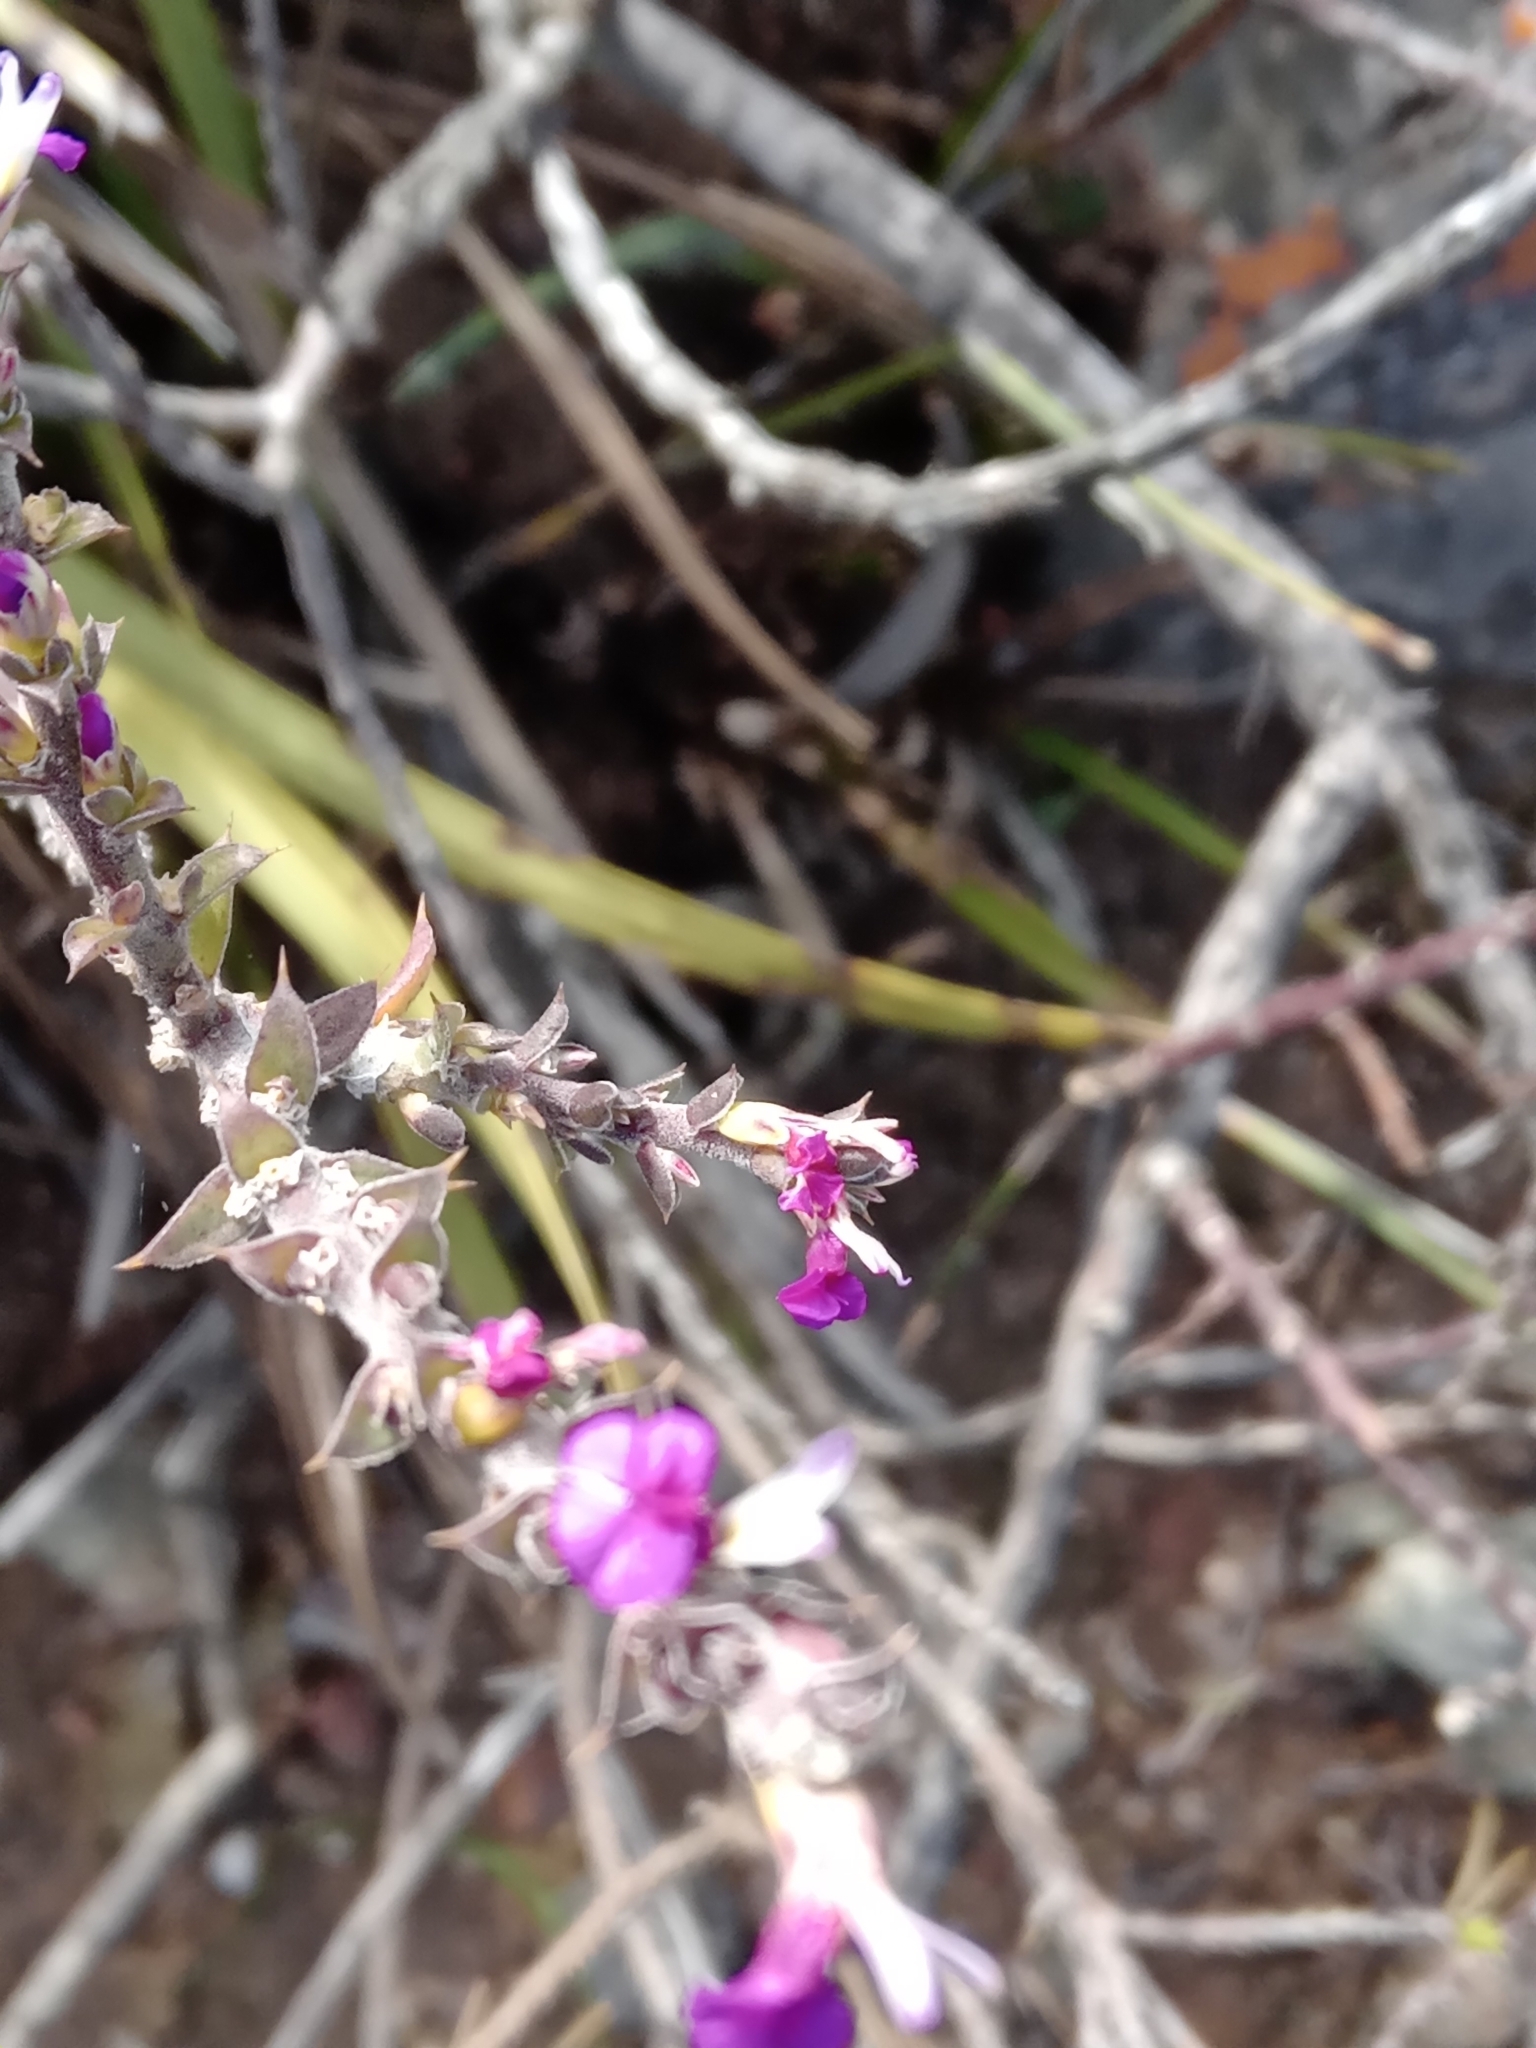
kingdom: Plantae
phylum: Tracheophyta
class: Magnoliopsida
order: Fabales
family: Polygalaceae
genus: Muraltia
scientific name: Muraltia heisteria
